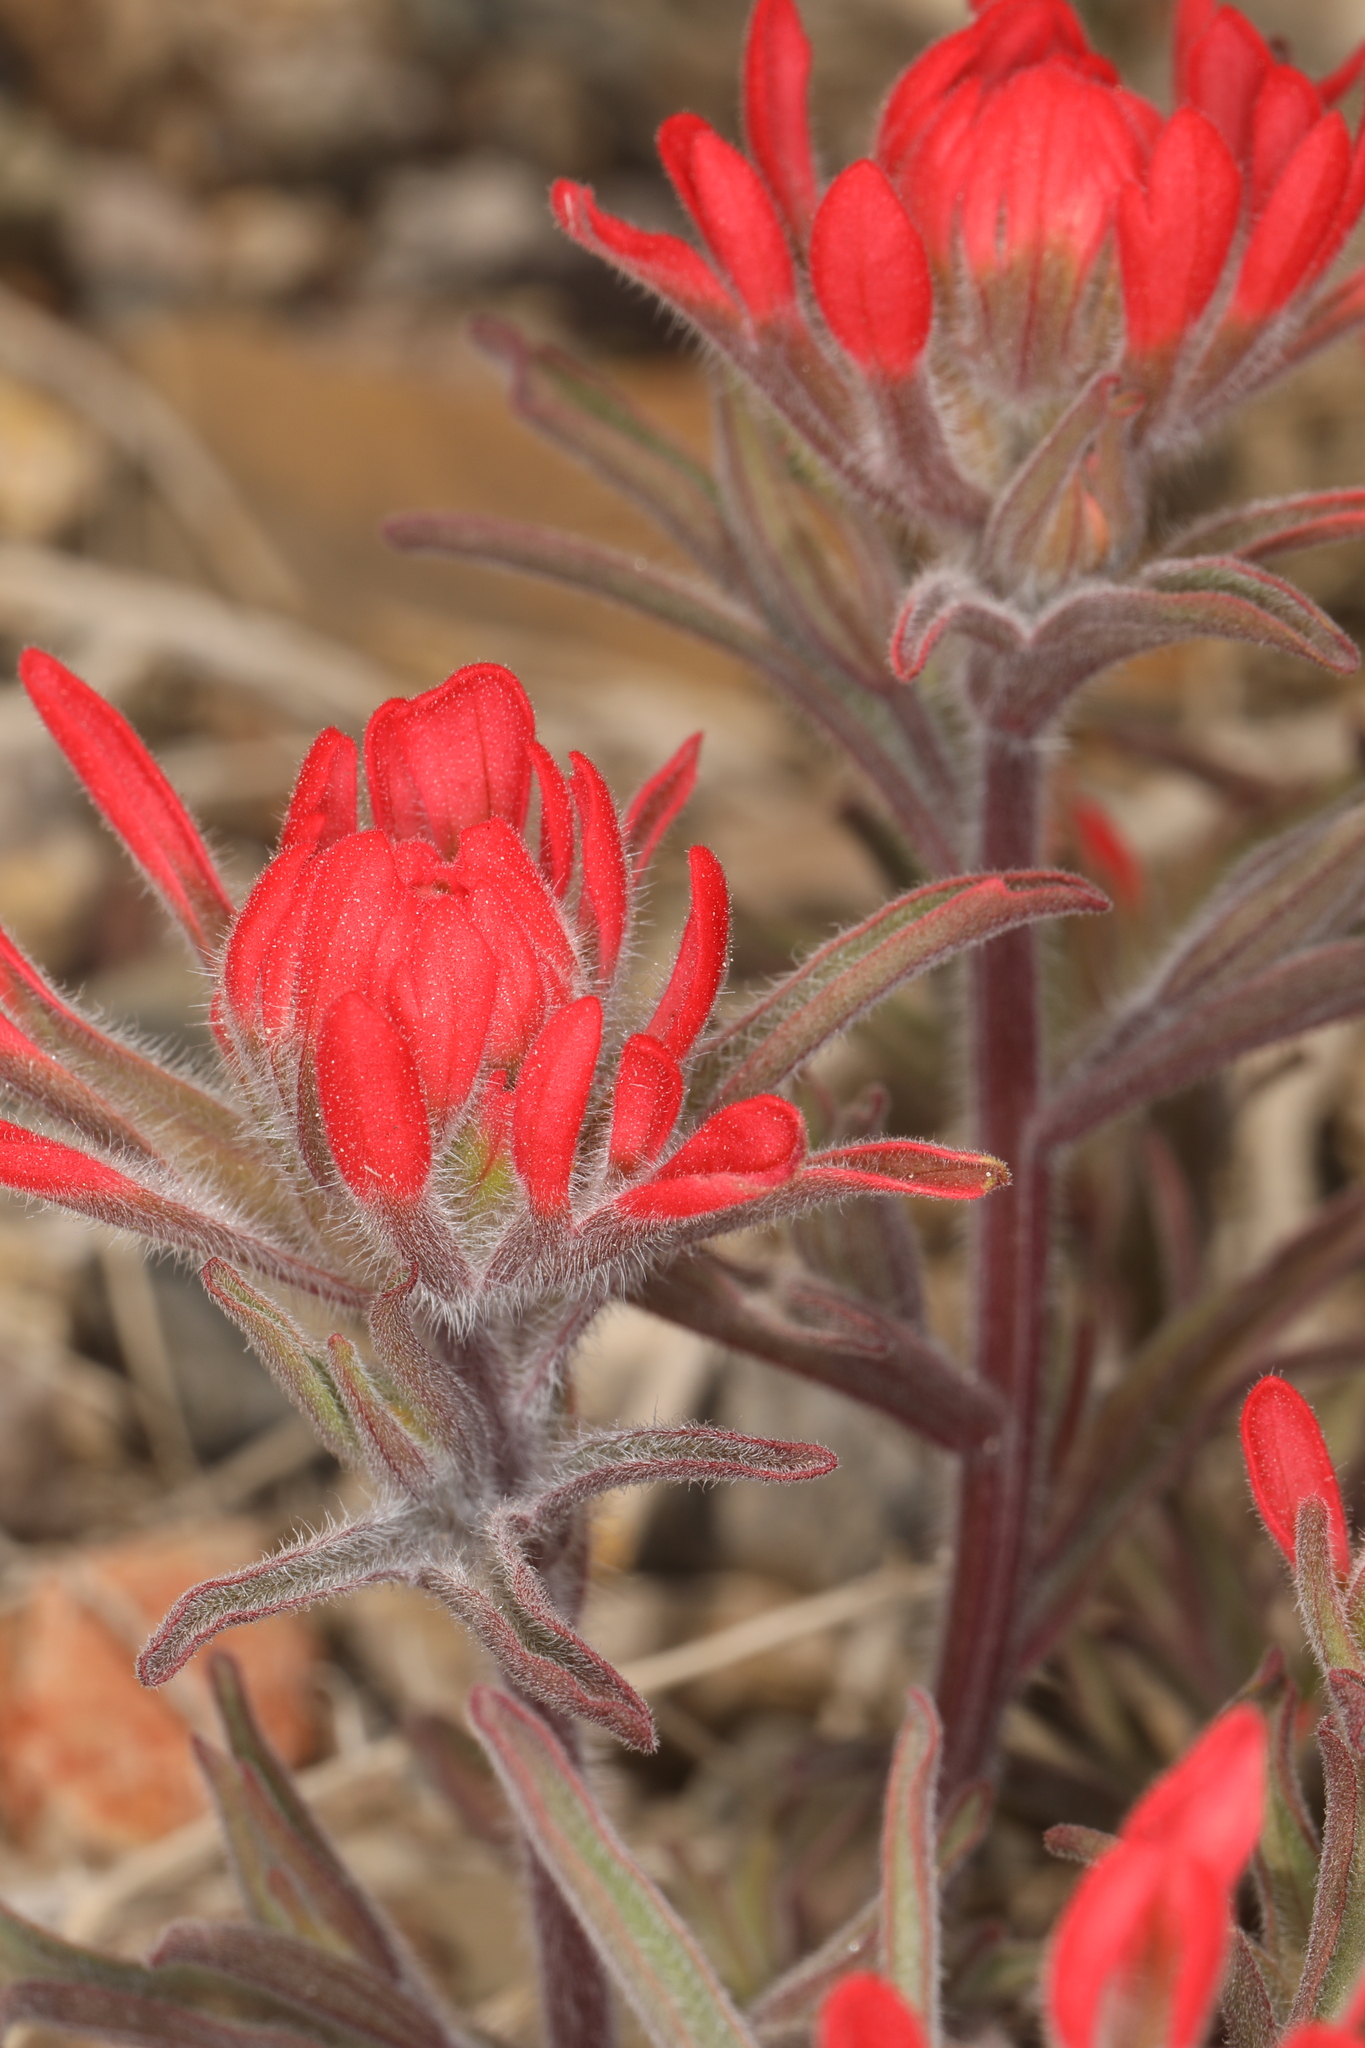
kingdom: Plantae
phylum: Tracheophyta
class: Magnoliopsida
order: Lamiales
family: Orobanchaceae
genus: Castilleja
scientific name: Castilleja chromosa
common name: Desert paintbrush
